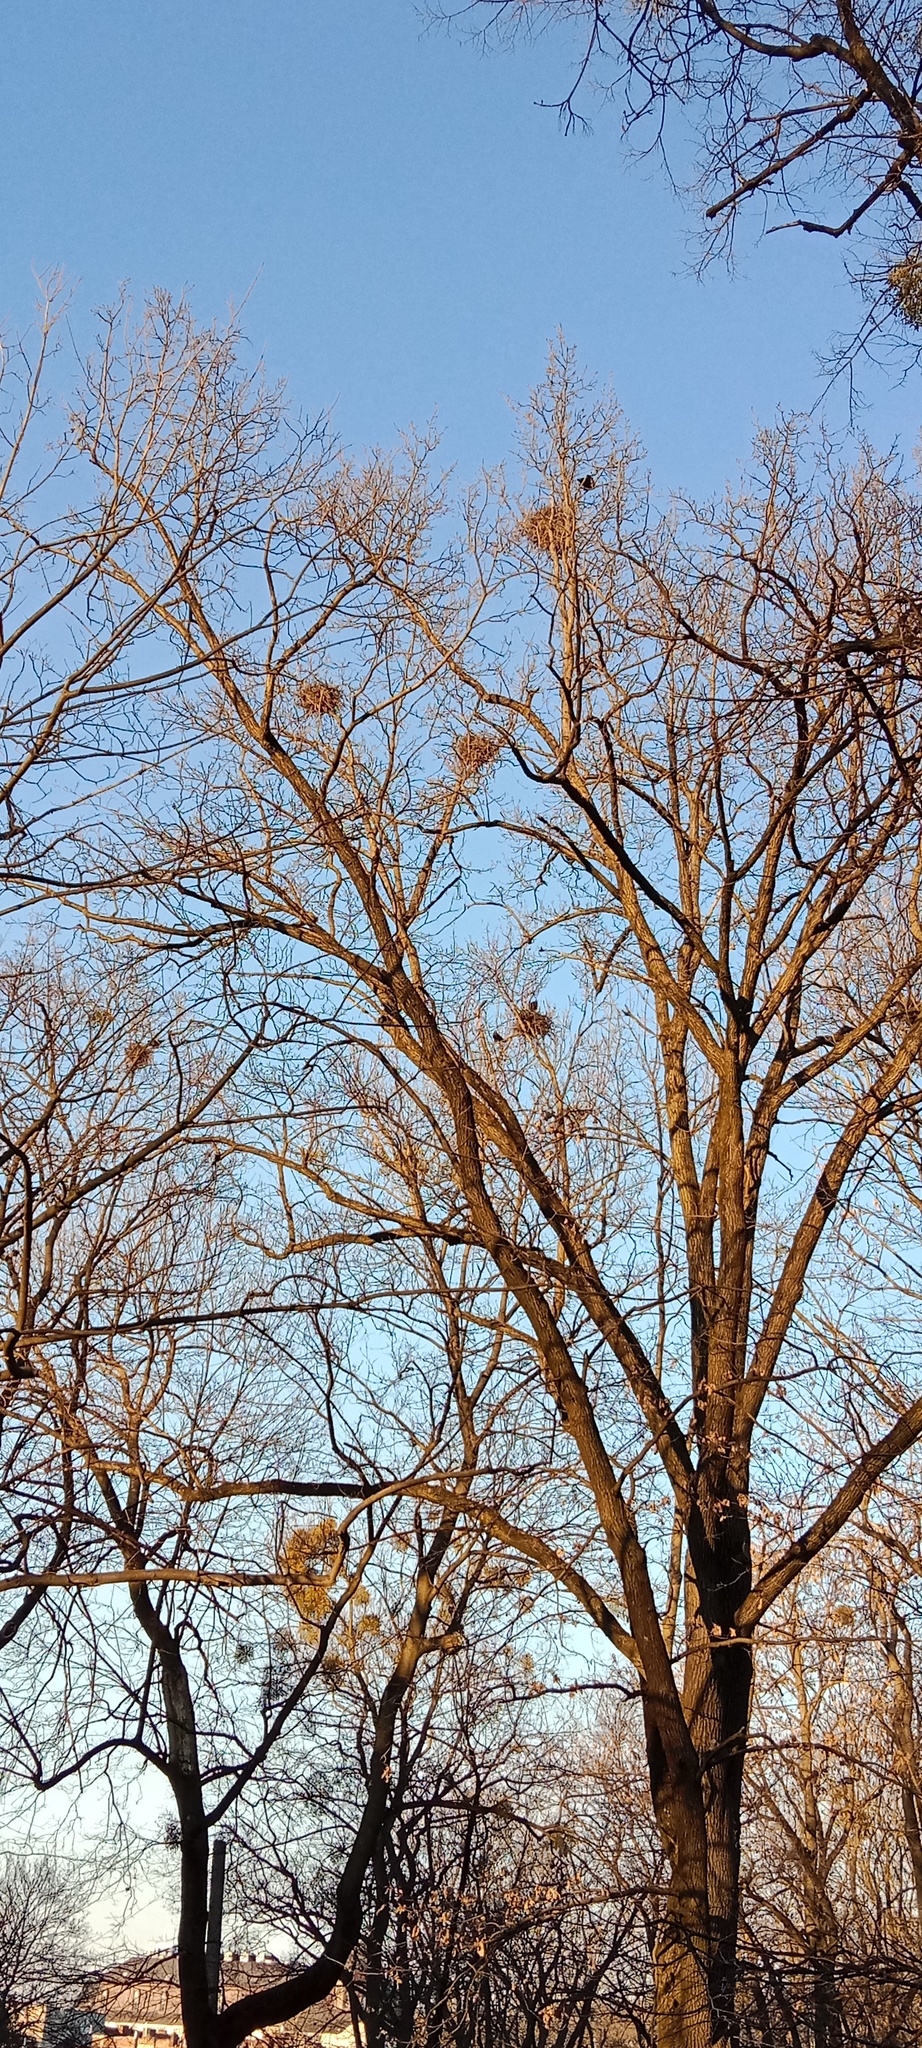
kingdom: Plantae
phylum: Tracheophyta
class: Magnoliopsida
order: Santalales
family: Viscaceae
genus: Viscum
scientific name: Viscum album
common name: Mistletoe
